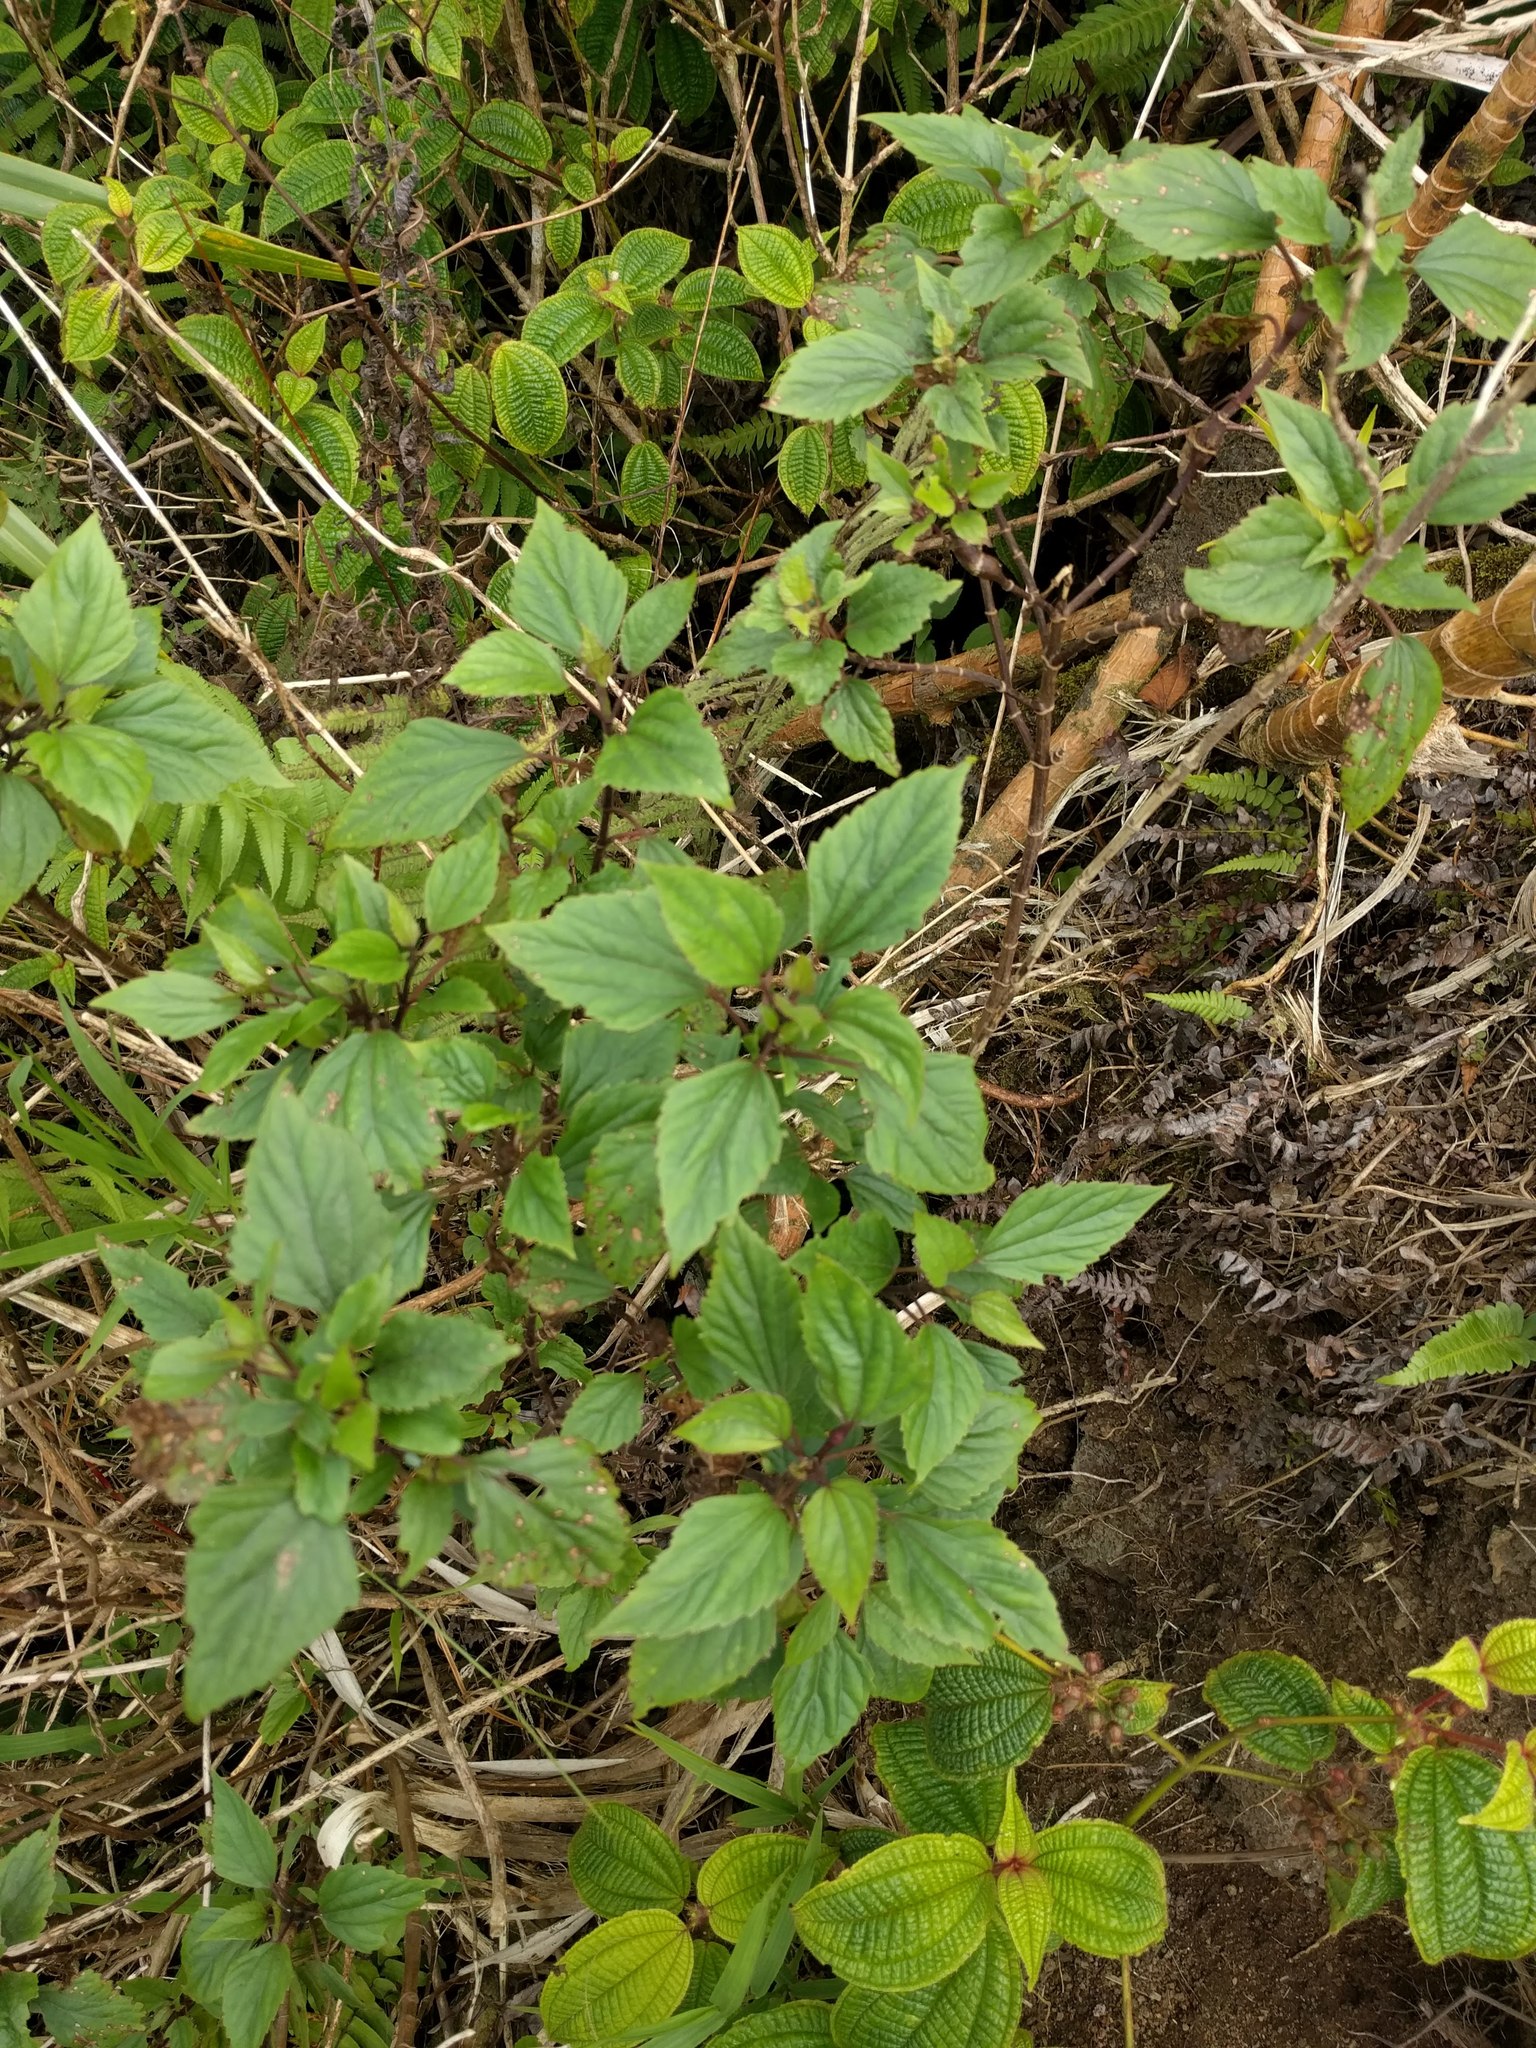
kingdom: Plantae
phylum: Tracheophyta
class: Magnoliopsida
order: Asterales
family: Asteraceae
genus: Ageratina
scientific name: Ageratina adenophora
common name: Sticky snakeroot
